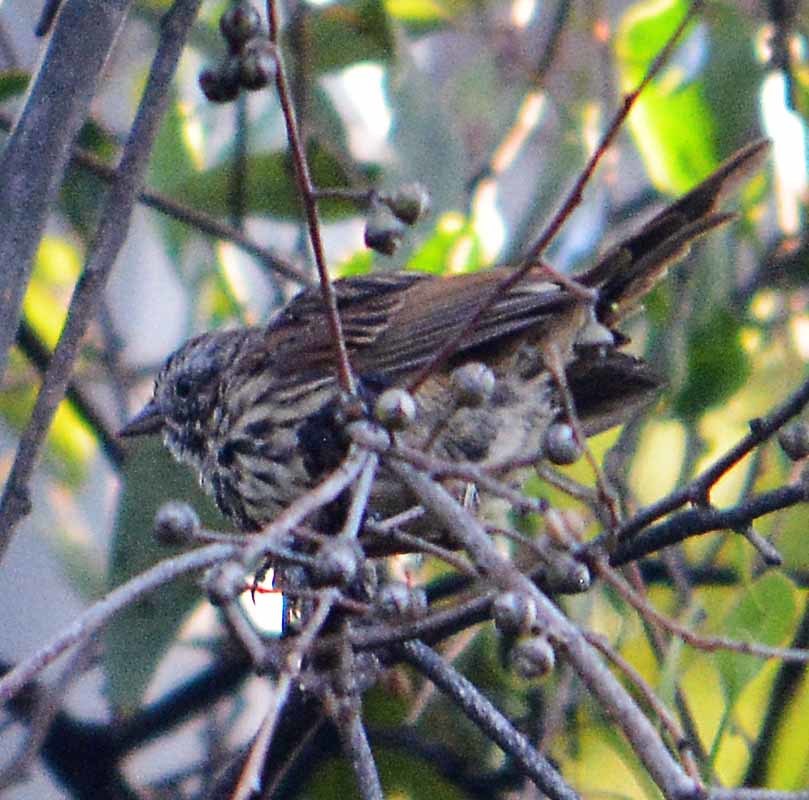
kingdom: Animalia
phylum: Chordata
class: Aves
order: Passeriformes
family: Passerellidae
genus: Melospiza
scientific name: Melospiza melodia
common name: Song sparrow
